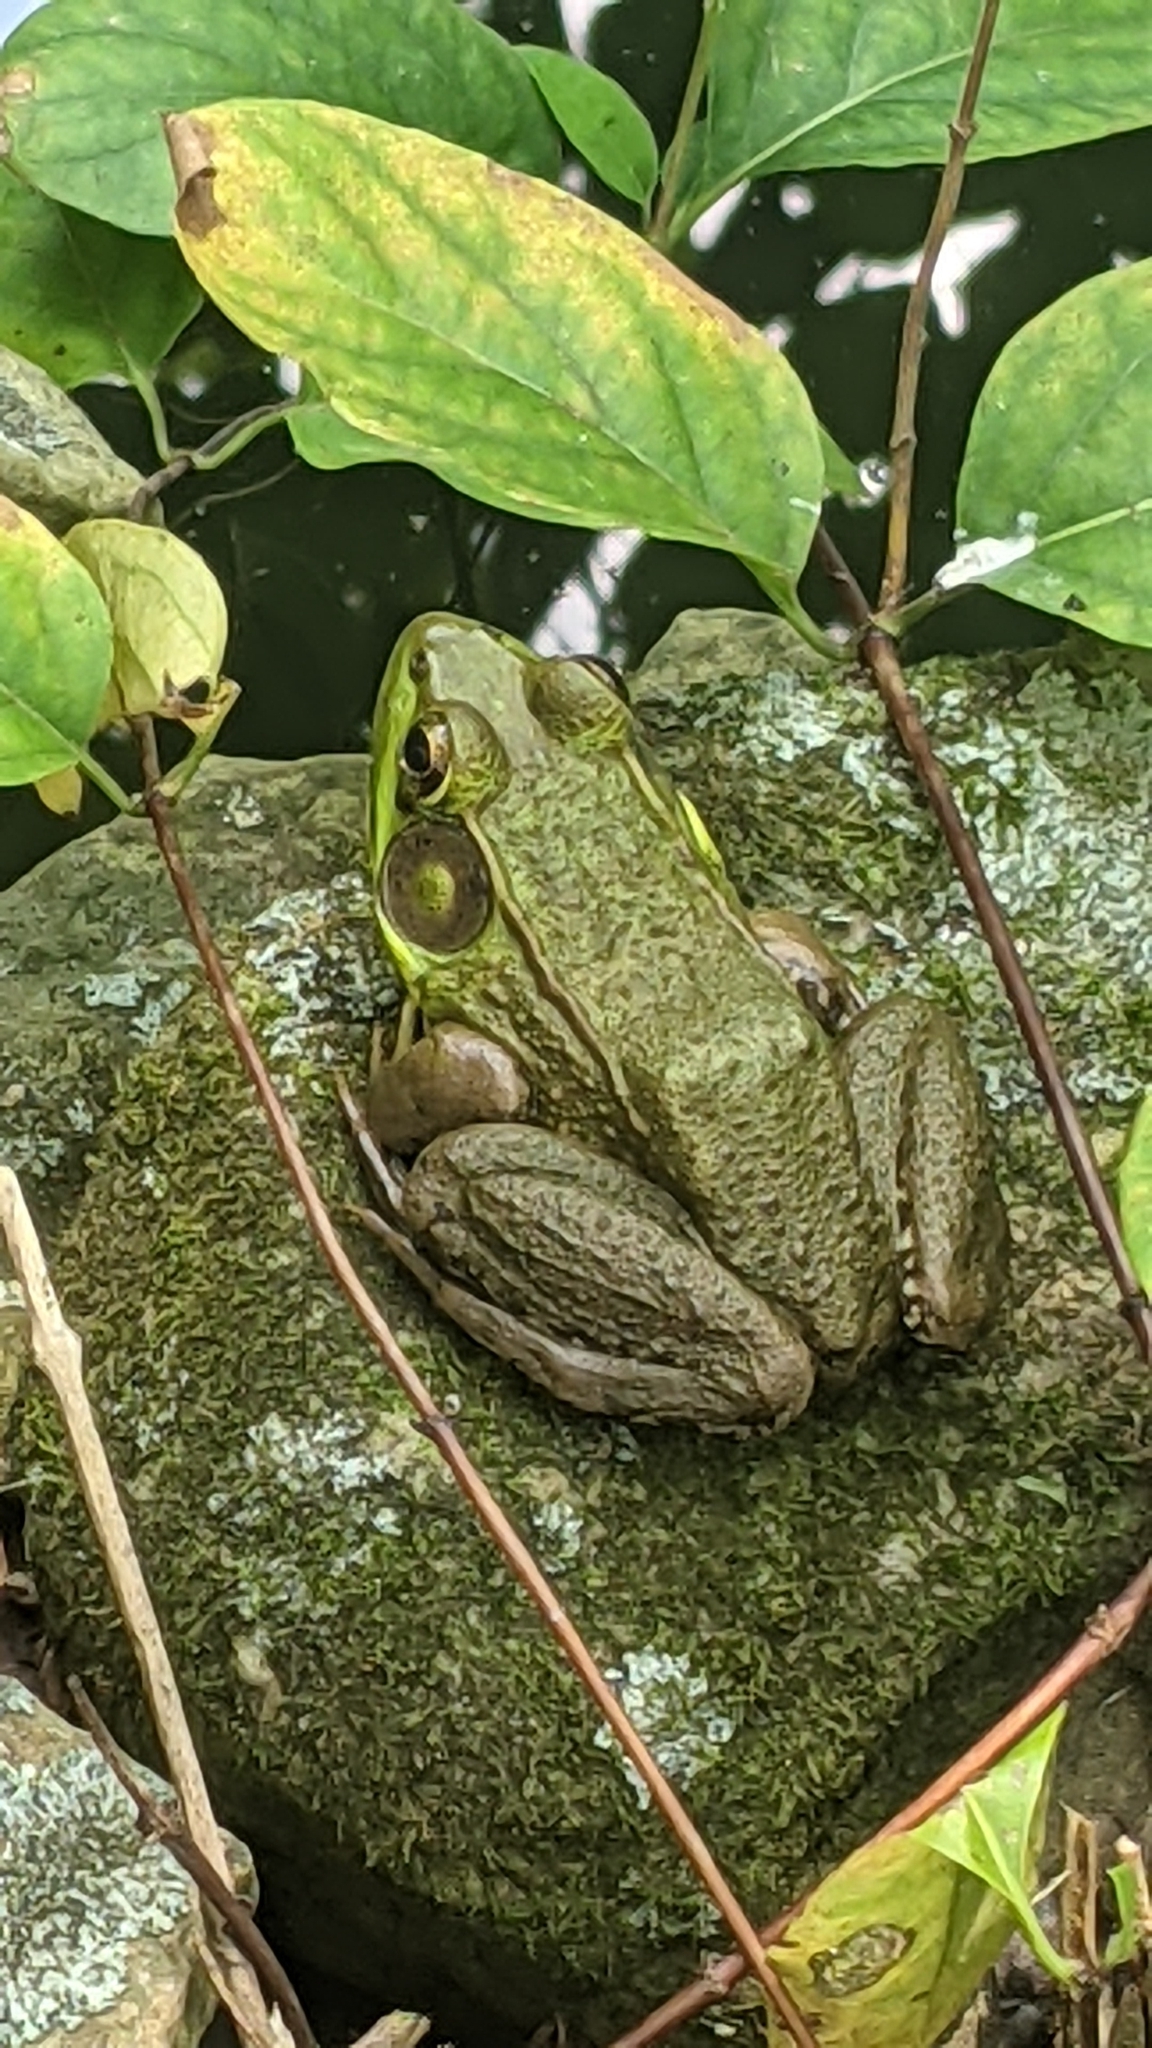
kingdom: Animalia
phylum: Chordata
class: Amphibia
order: Anura
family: Ranidae
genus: Lithobates
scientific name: Lithobates clamitans
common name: Green frog
